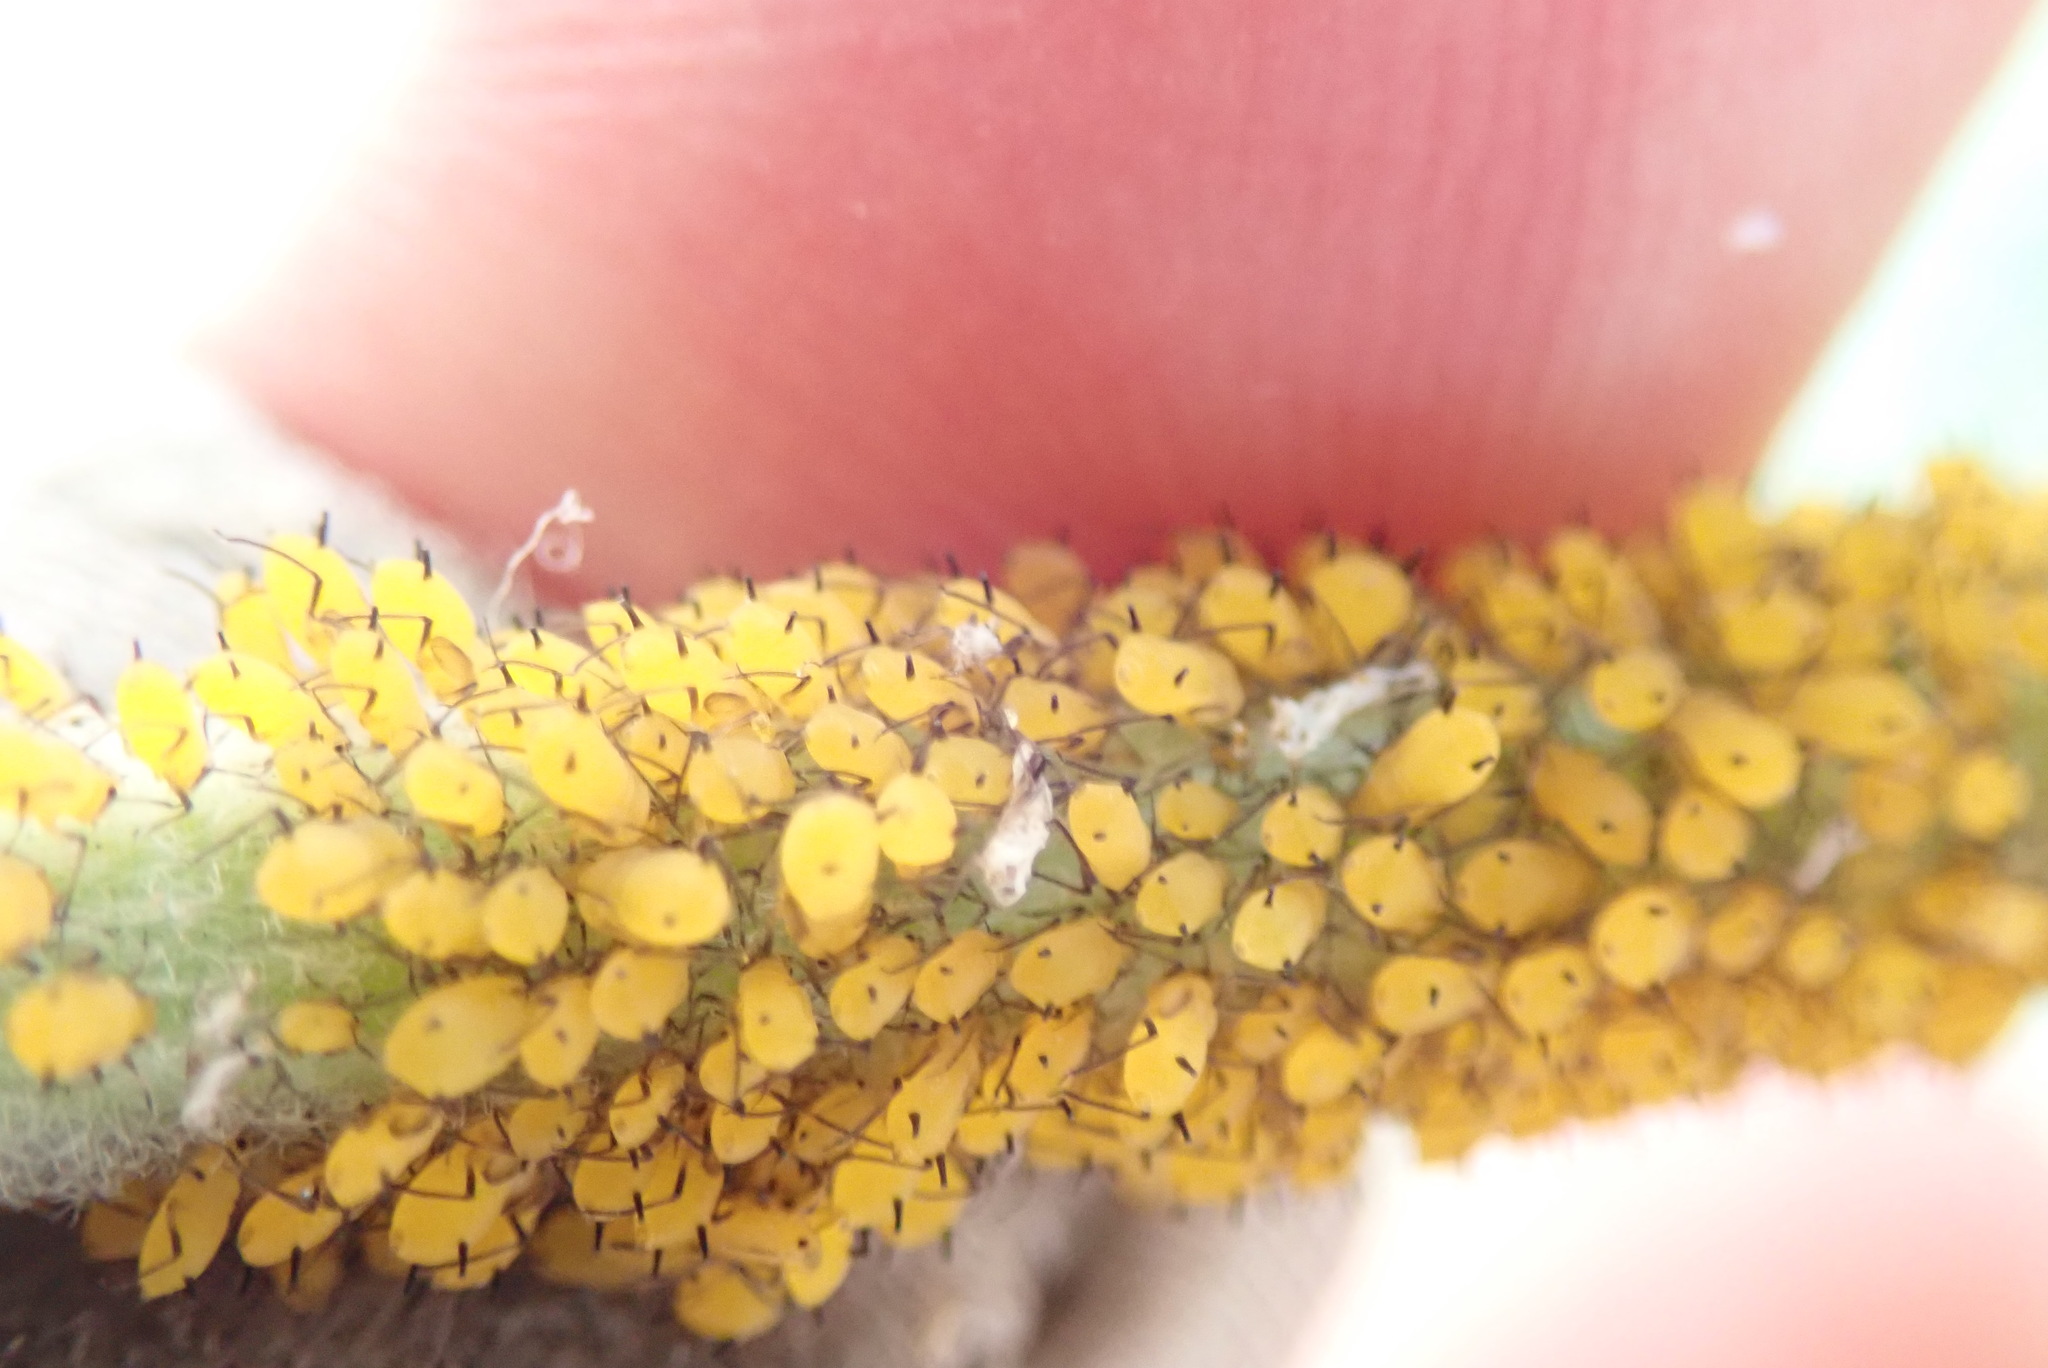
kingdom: Animalia
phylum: Arthropoda
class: Insecta
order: Hemiptera
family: Aphididae
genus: Aphis
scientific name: Aphis nerii
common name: Oleander aphid
